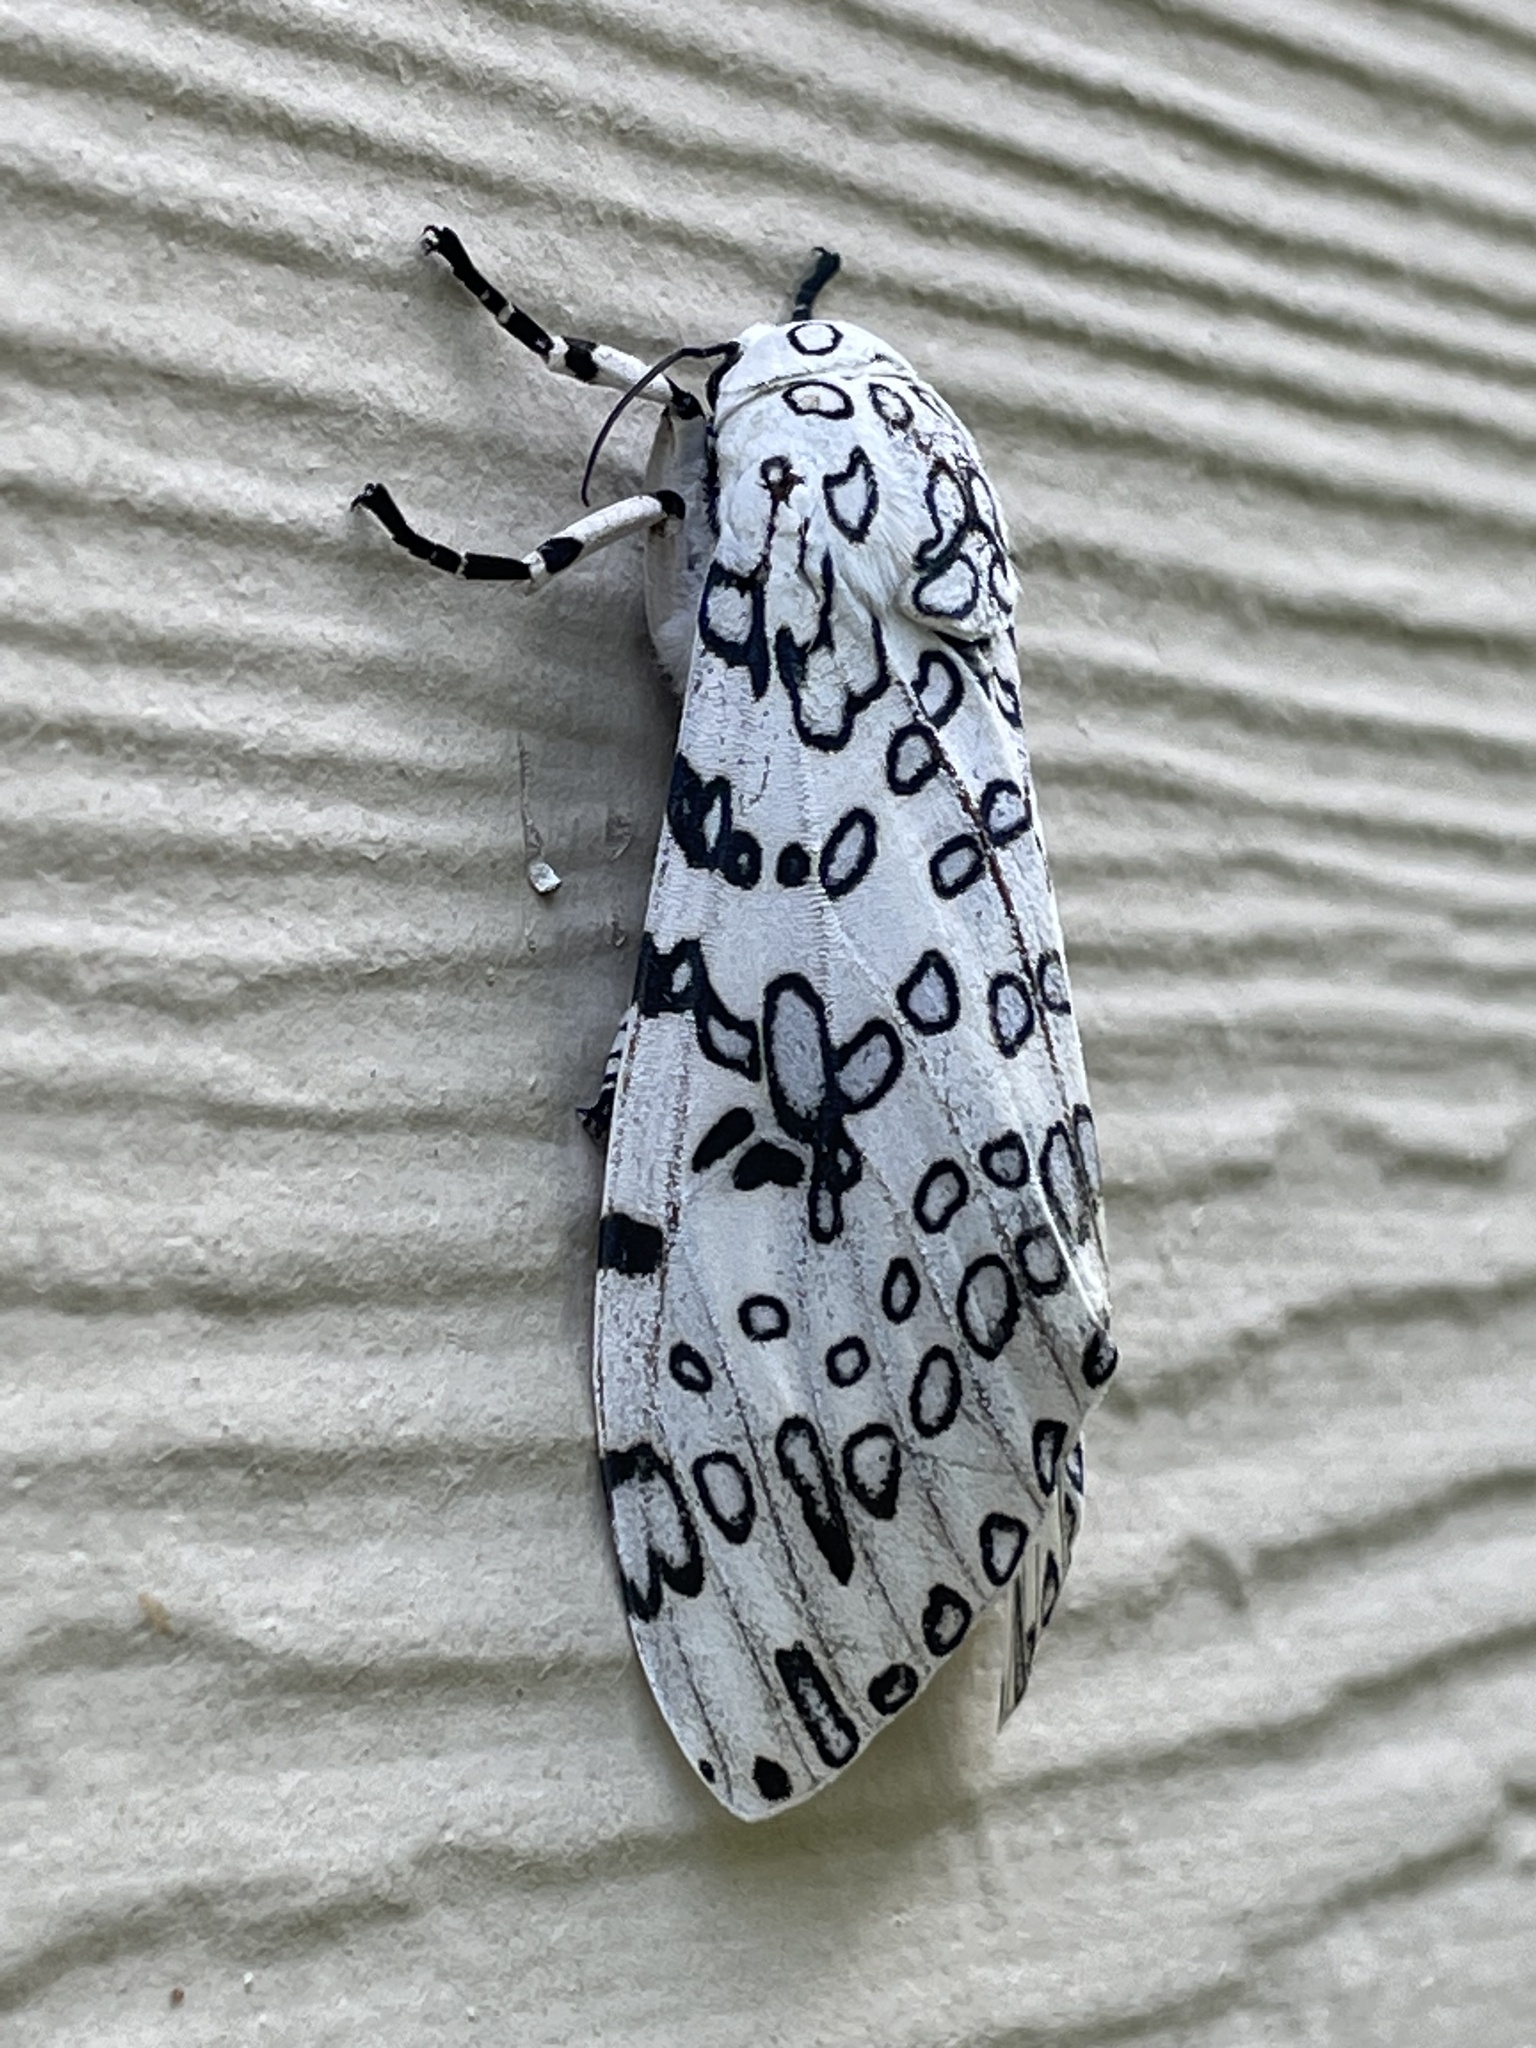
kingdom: Animalia
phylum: Arthropoda
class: Insecta
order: Lepidoptera
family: Erebidae
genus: Hypercompe
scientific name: Hypercompe scribonia
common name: Giant leopard moth
